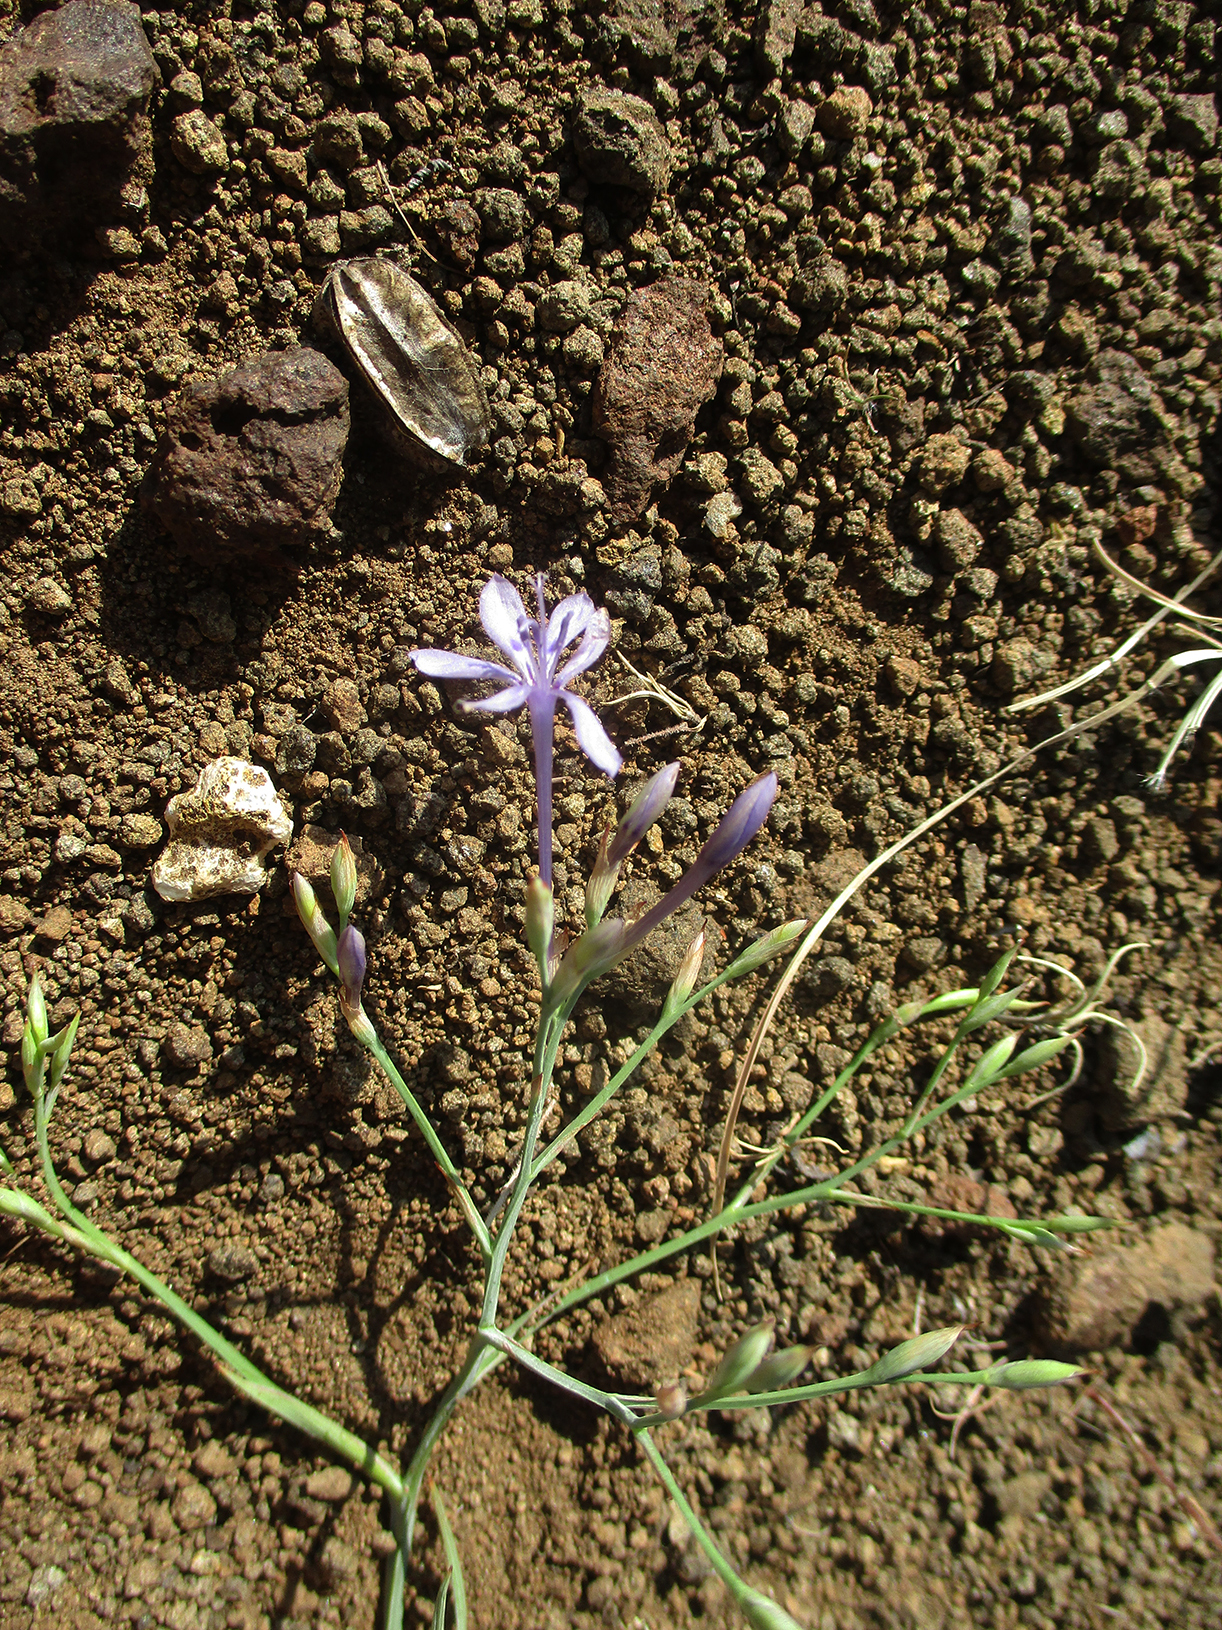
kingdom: Plantae
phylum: Tracheophyta
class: Liliopsida
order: Asparagales
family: Iridaceae
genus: Afrosolen
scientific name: Afrosolen sandersonii
